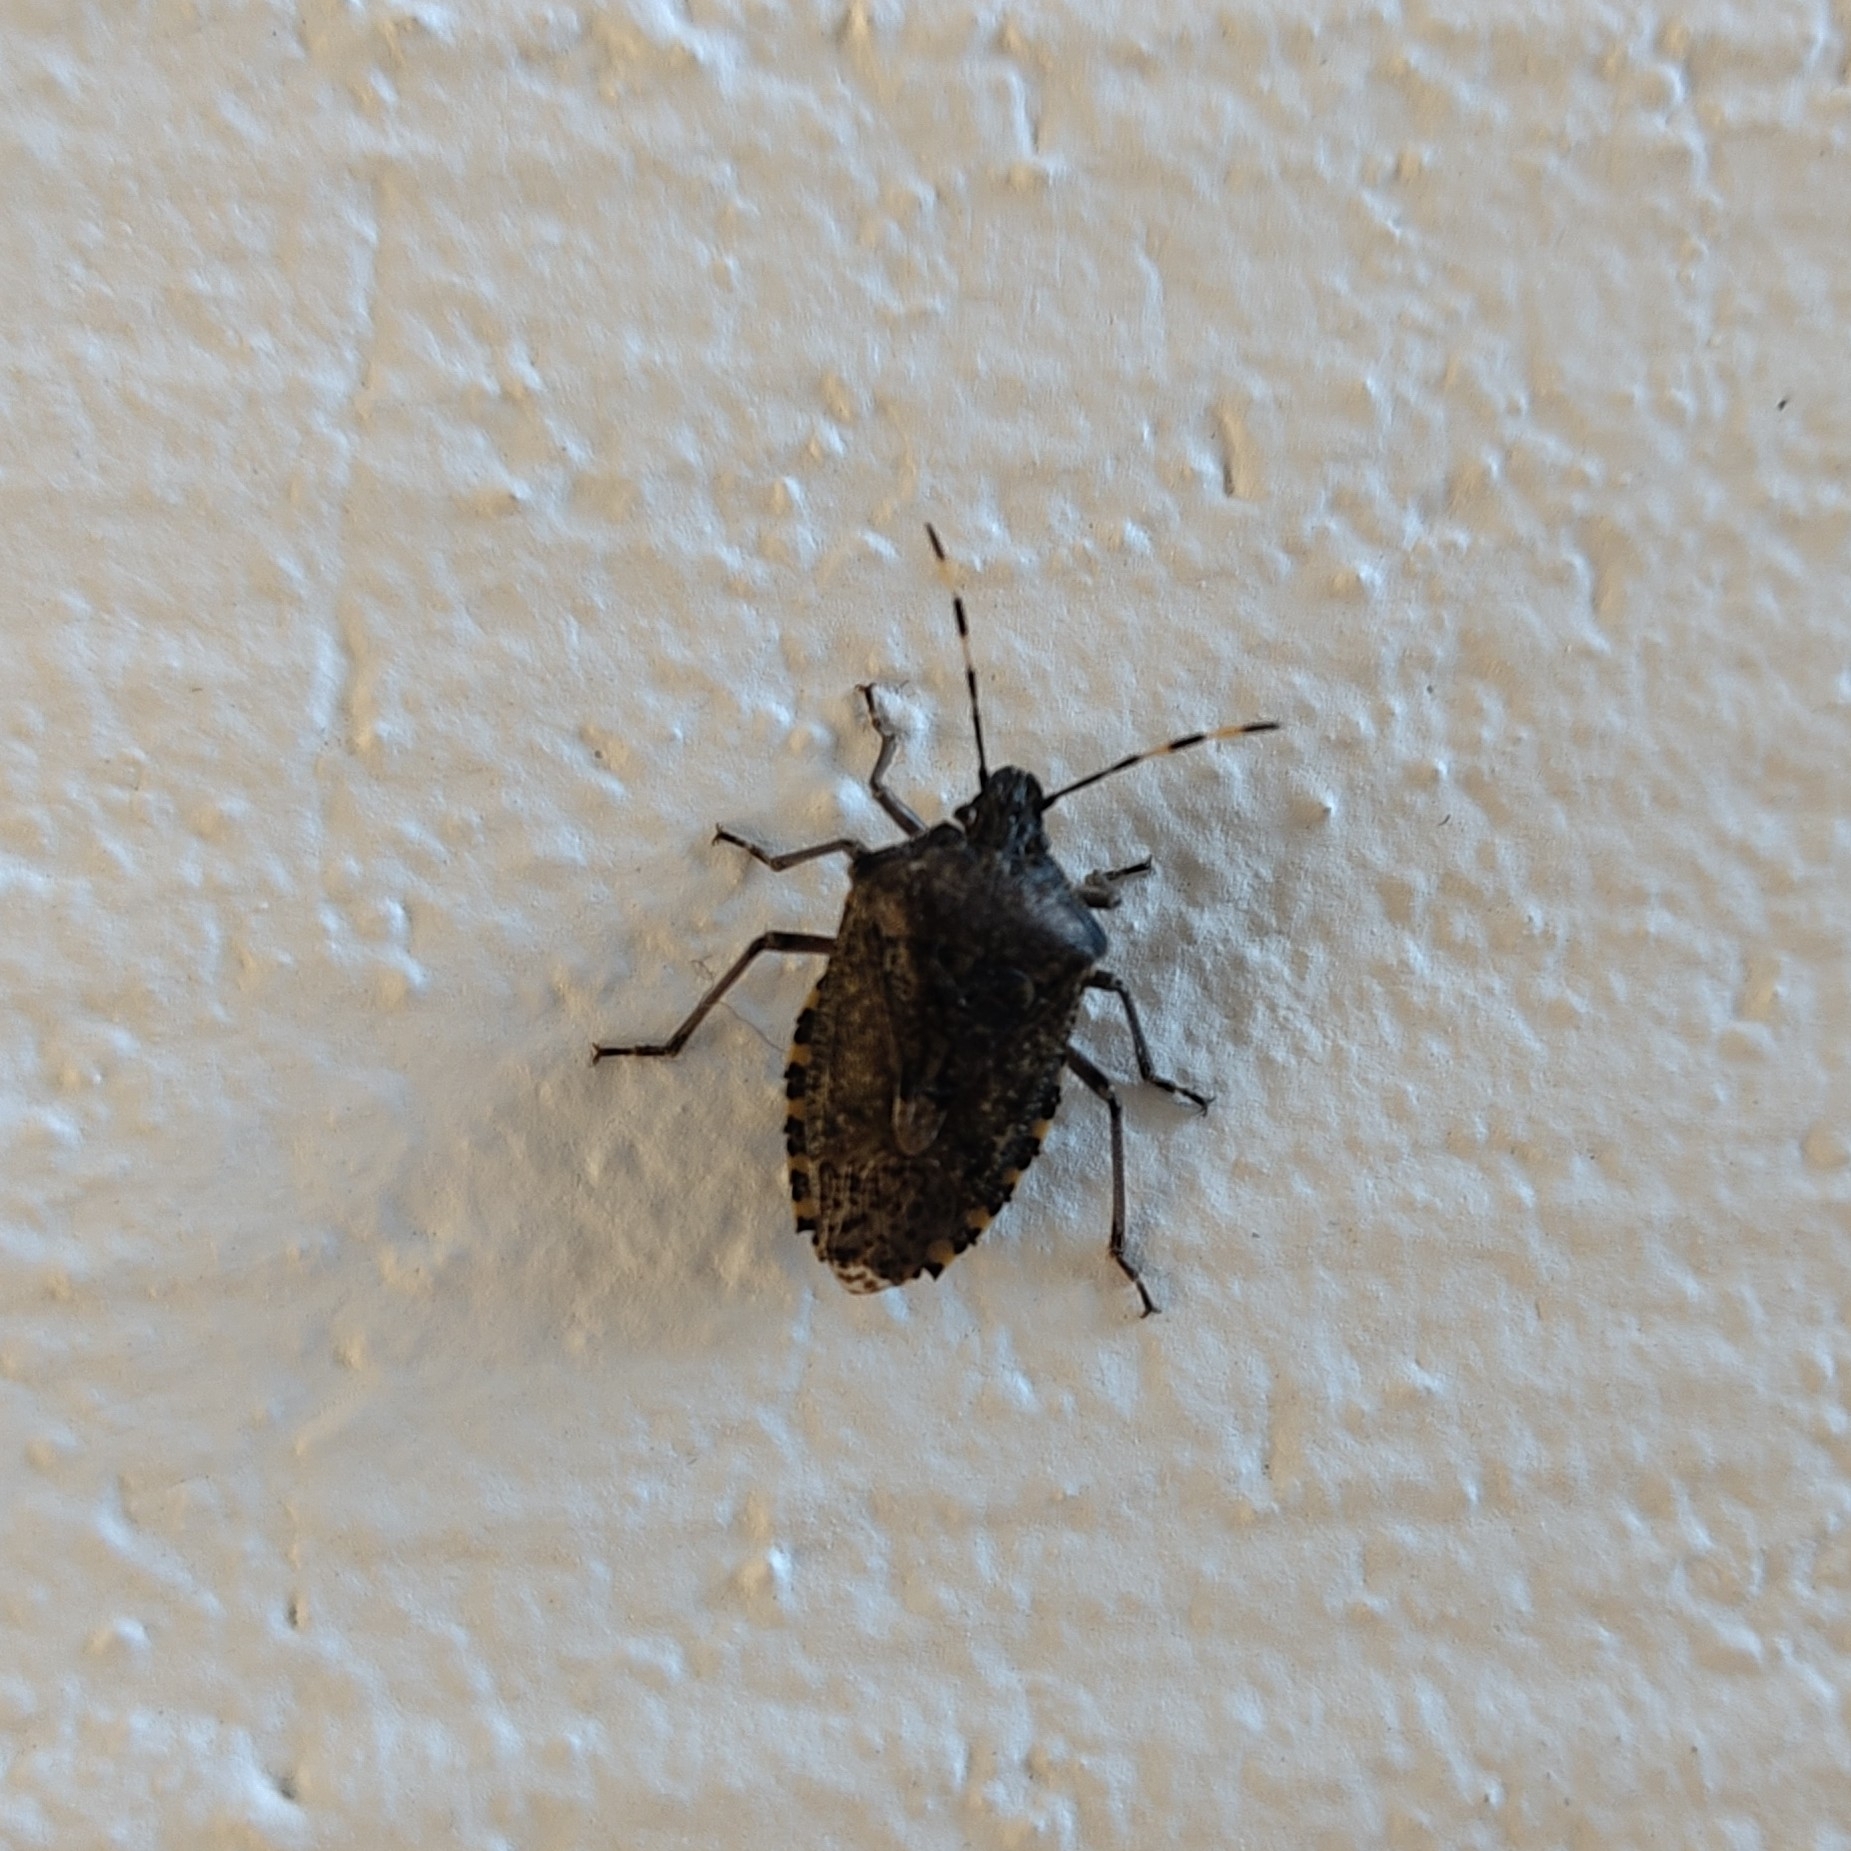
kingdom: Animalia
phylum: Arthropoda
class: Insecta
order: Hemiptera
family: Pentatomidae
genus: Rhaphigaster
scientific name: Rhaphigaster nebulosa
